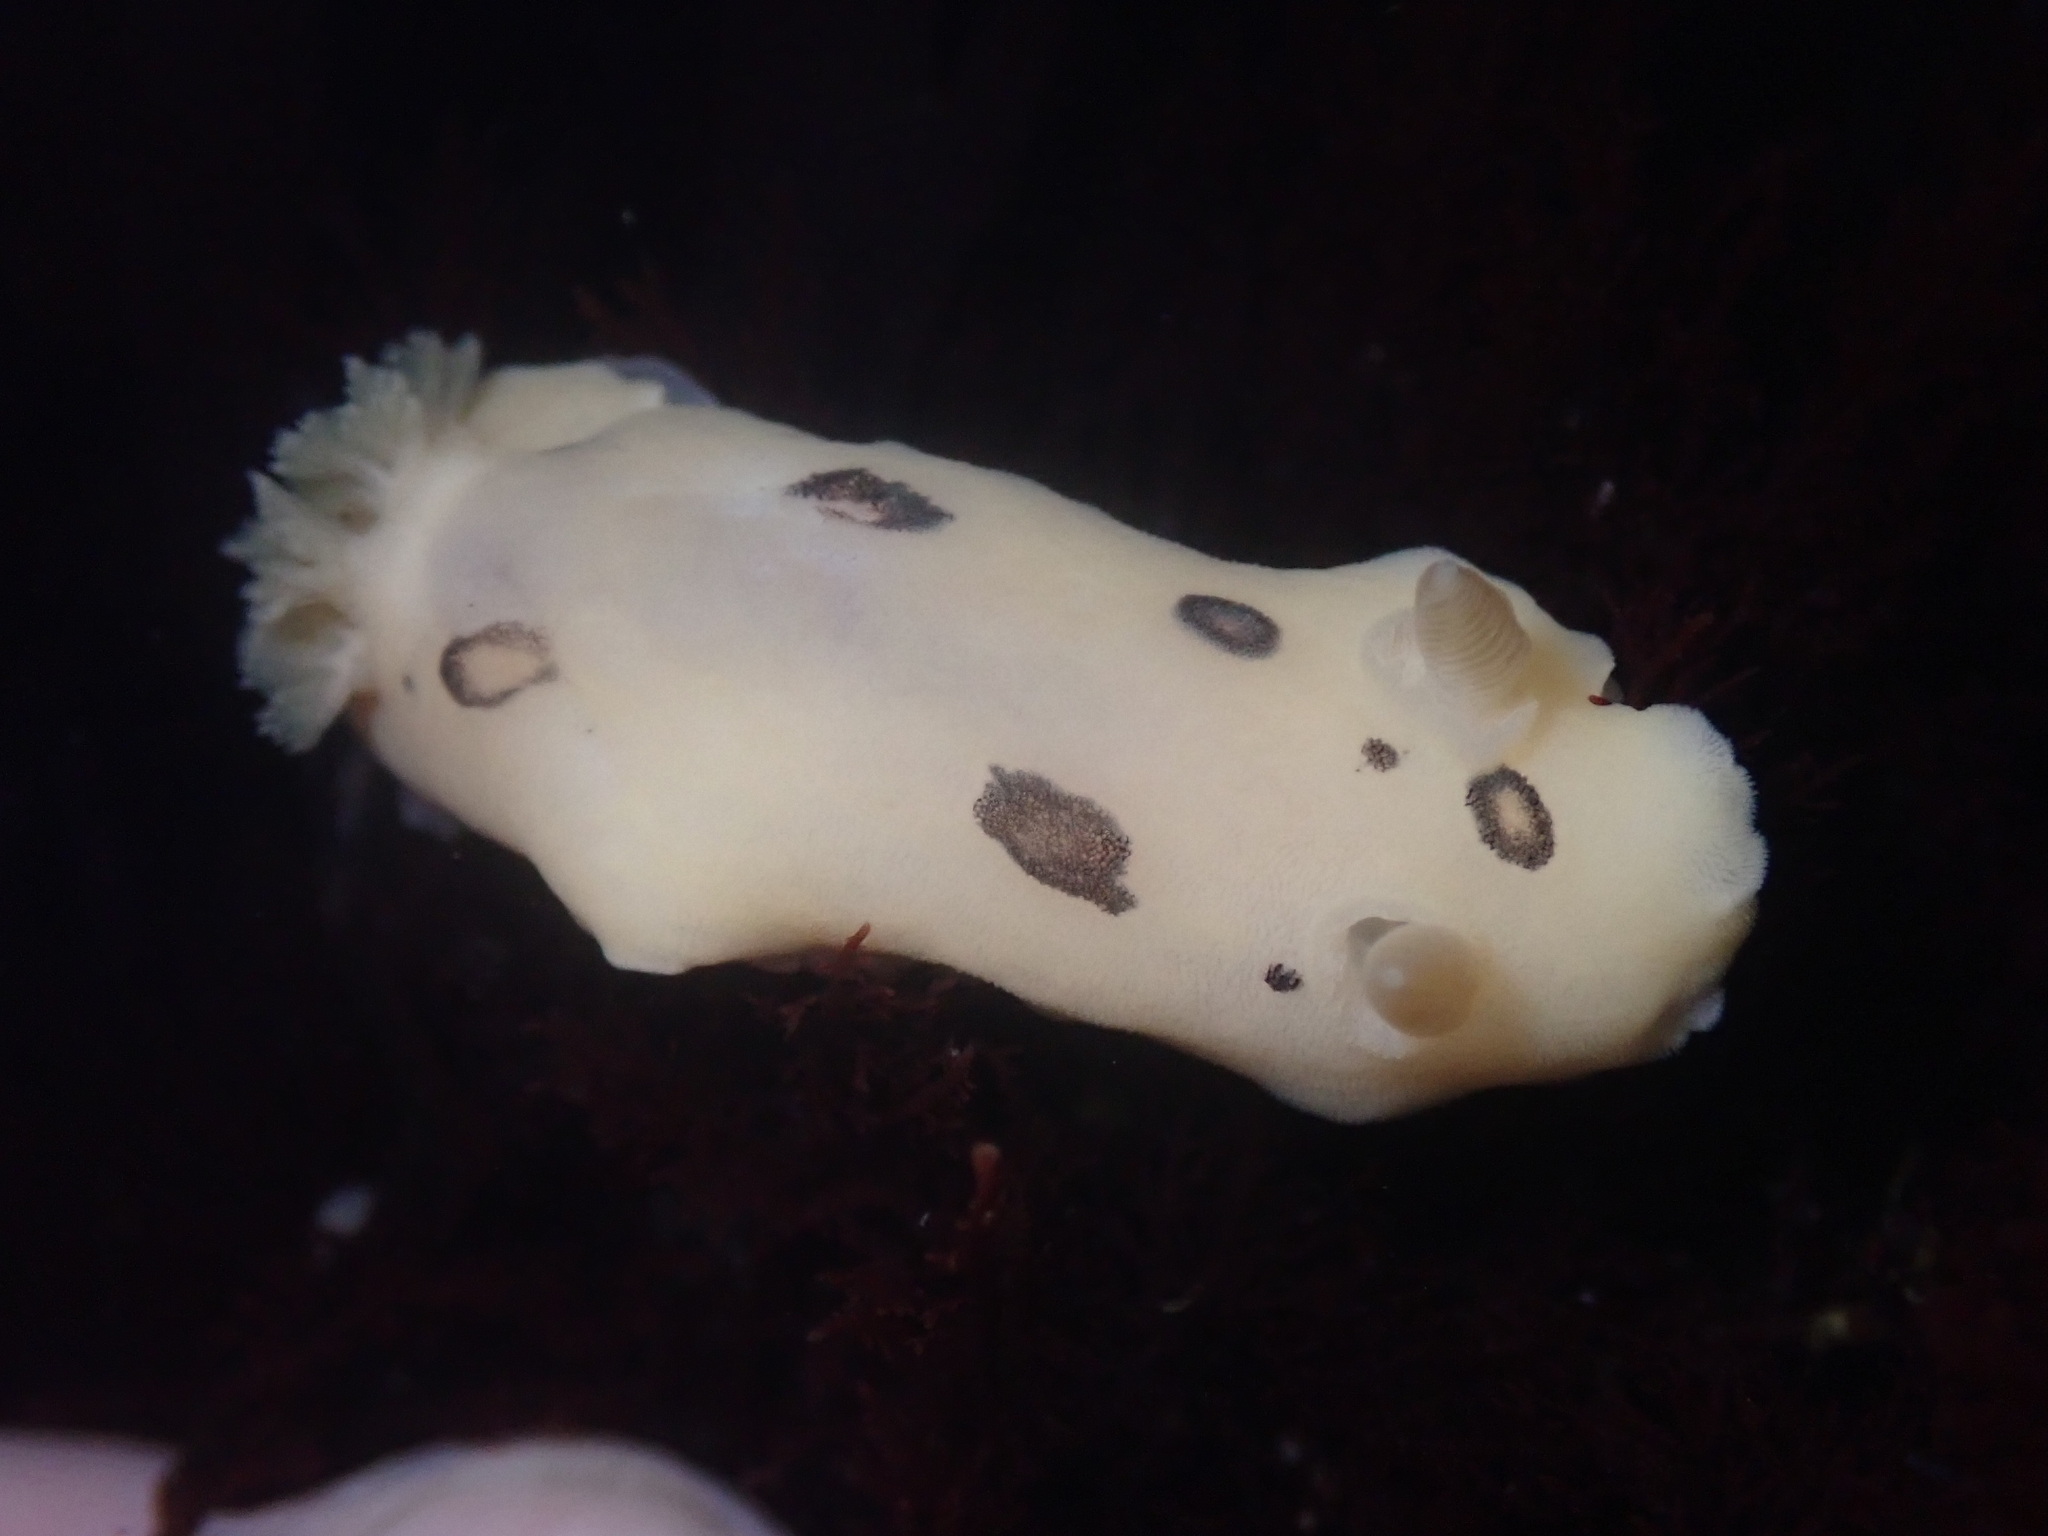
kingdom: Animalia
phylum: Mollusca
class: Gastropoda
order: Nudibranchia
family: Discodorididae
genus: Diaulula
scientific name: Diaulula sandiegensis
